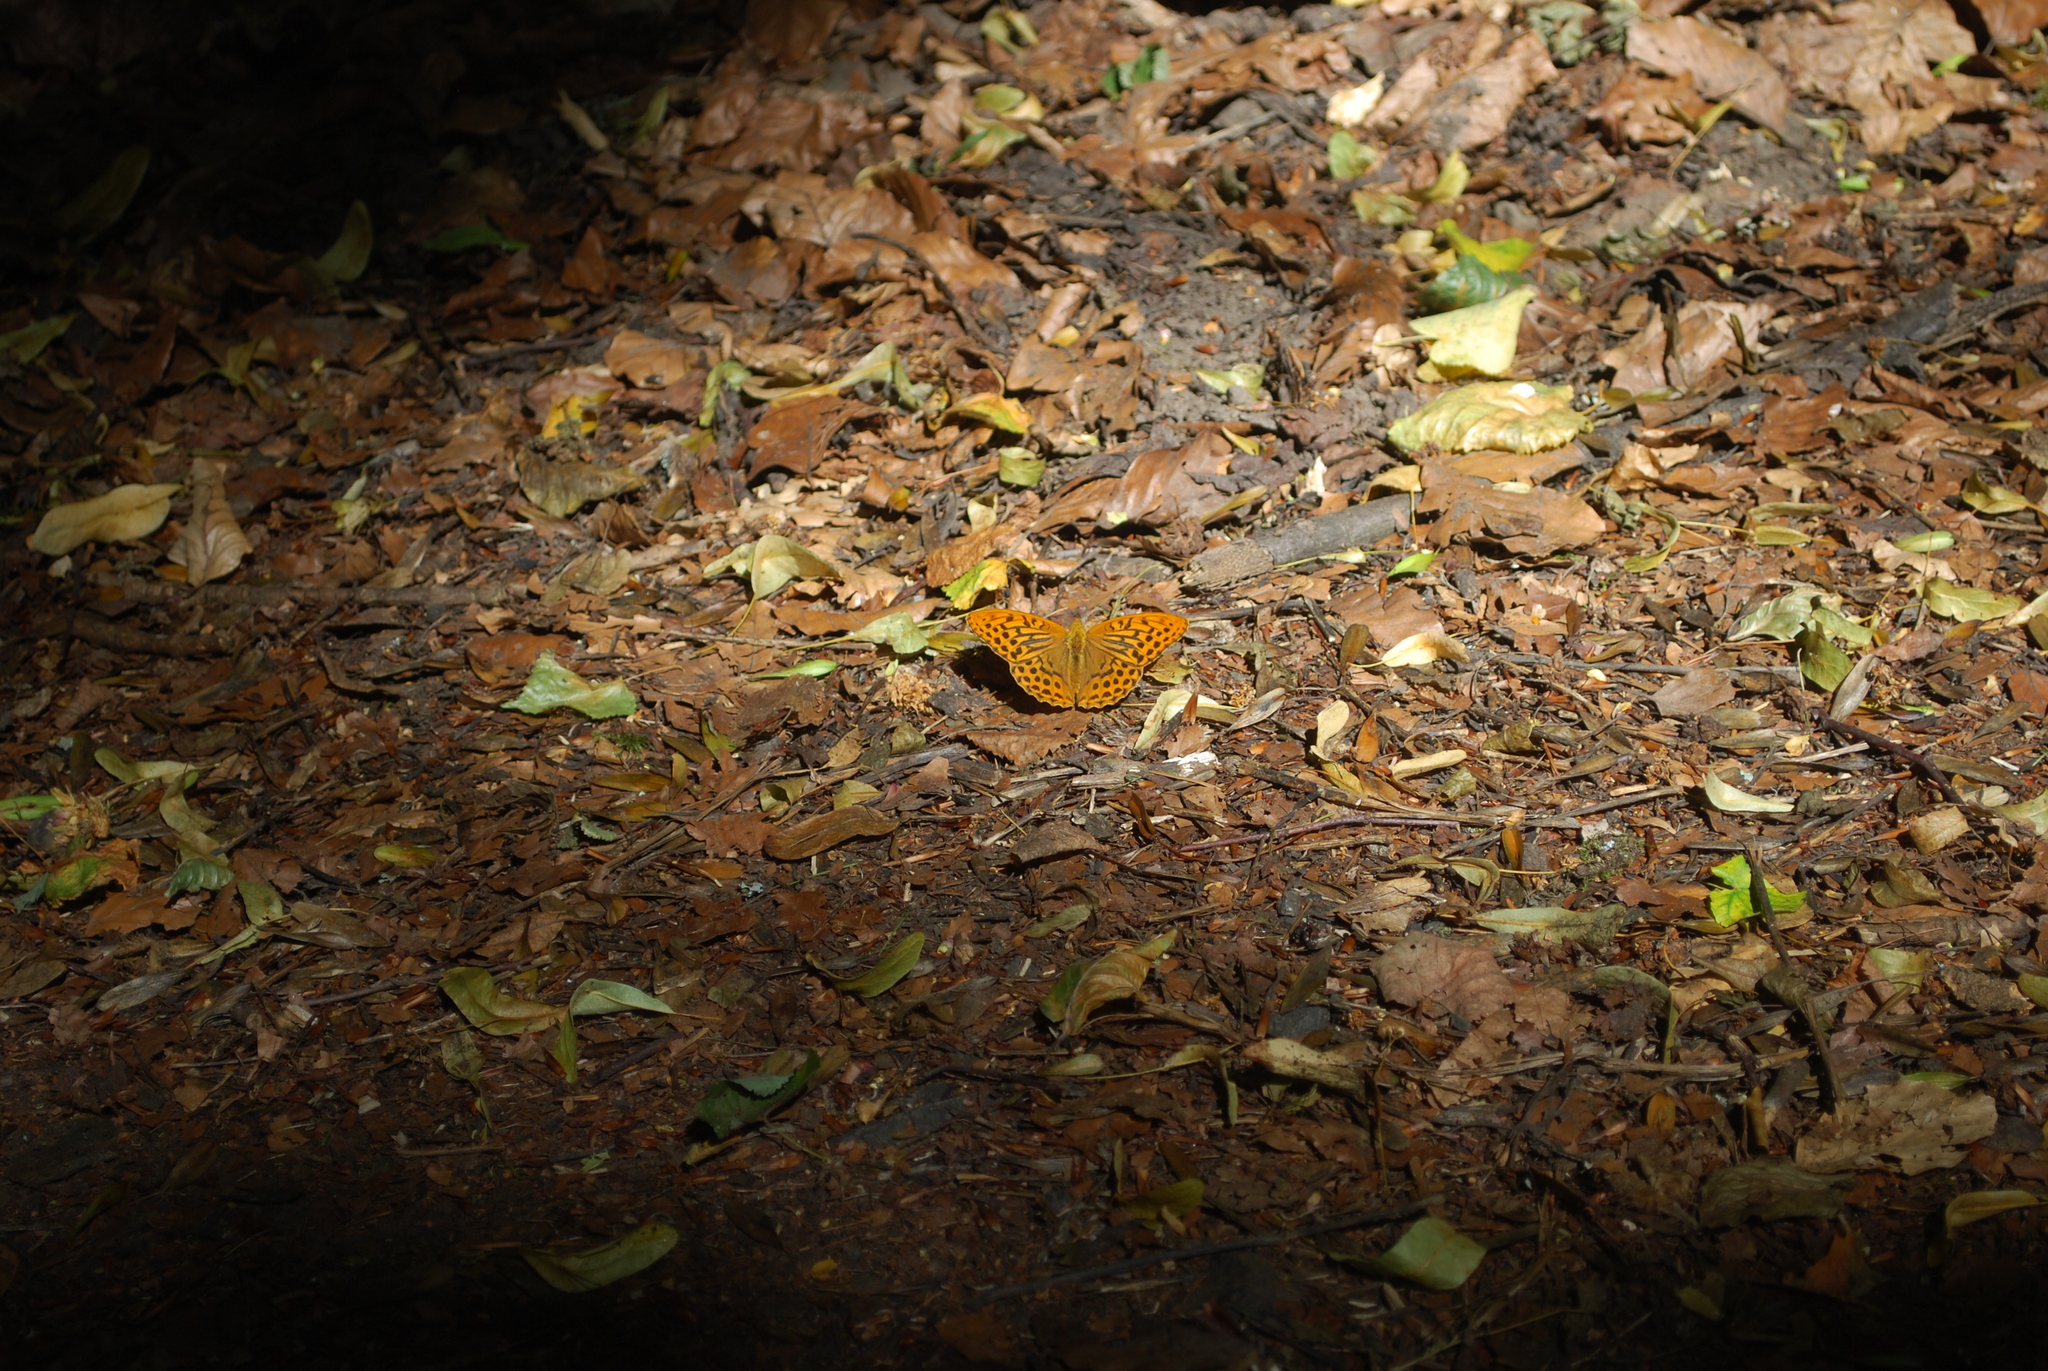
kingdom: Animalia
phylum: Arthropoda
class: Insecta
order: Lepidoptera
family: Nymphalidae
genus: Argynnis
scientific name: Argynnis paphia
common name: Silver-washed fritillary
